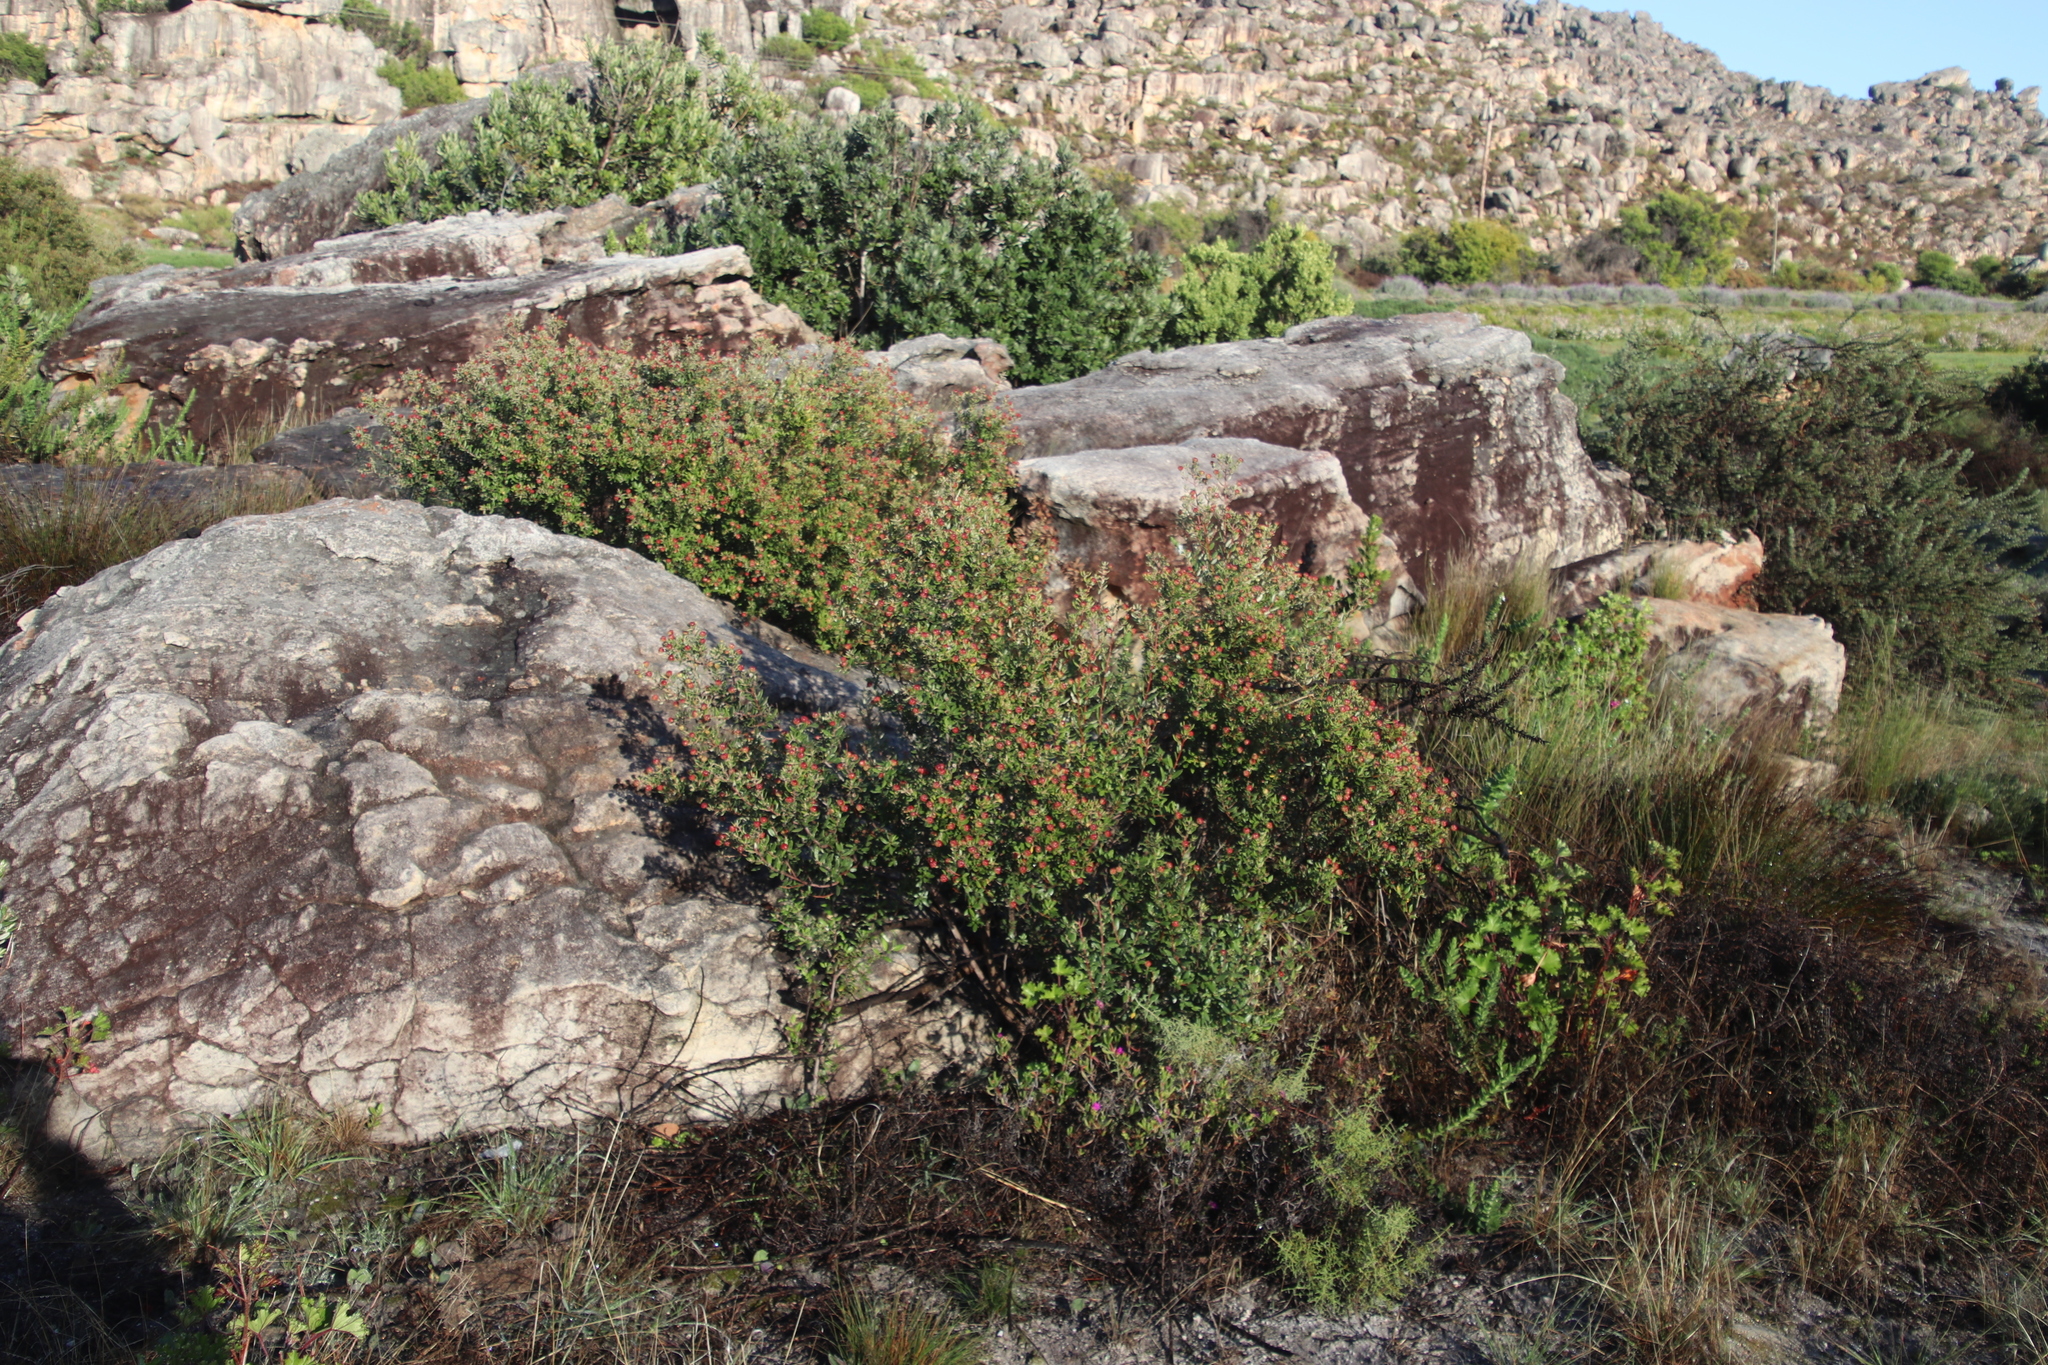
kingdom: Plantae
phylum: Tracheophyta
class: Magnoliopsida
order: Rosales
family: Rhamnaceae
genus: Phylica
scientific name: Phylica oleifolia
